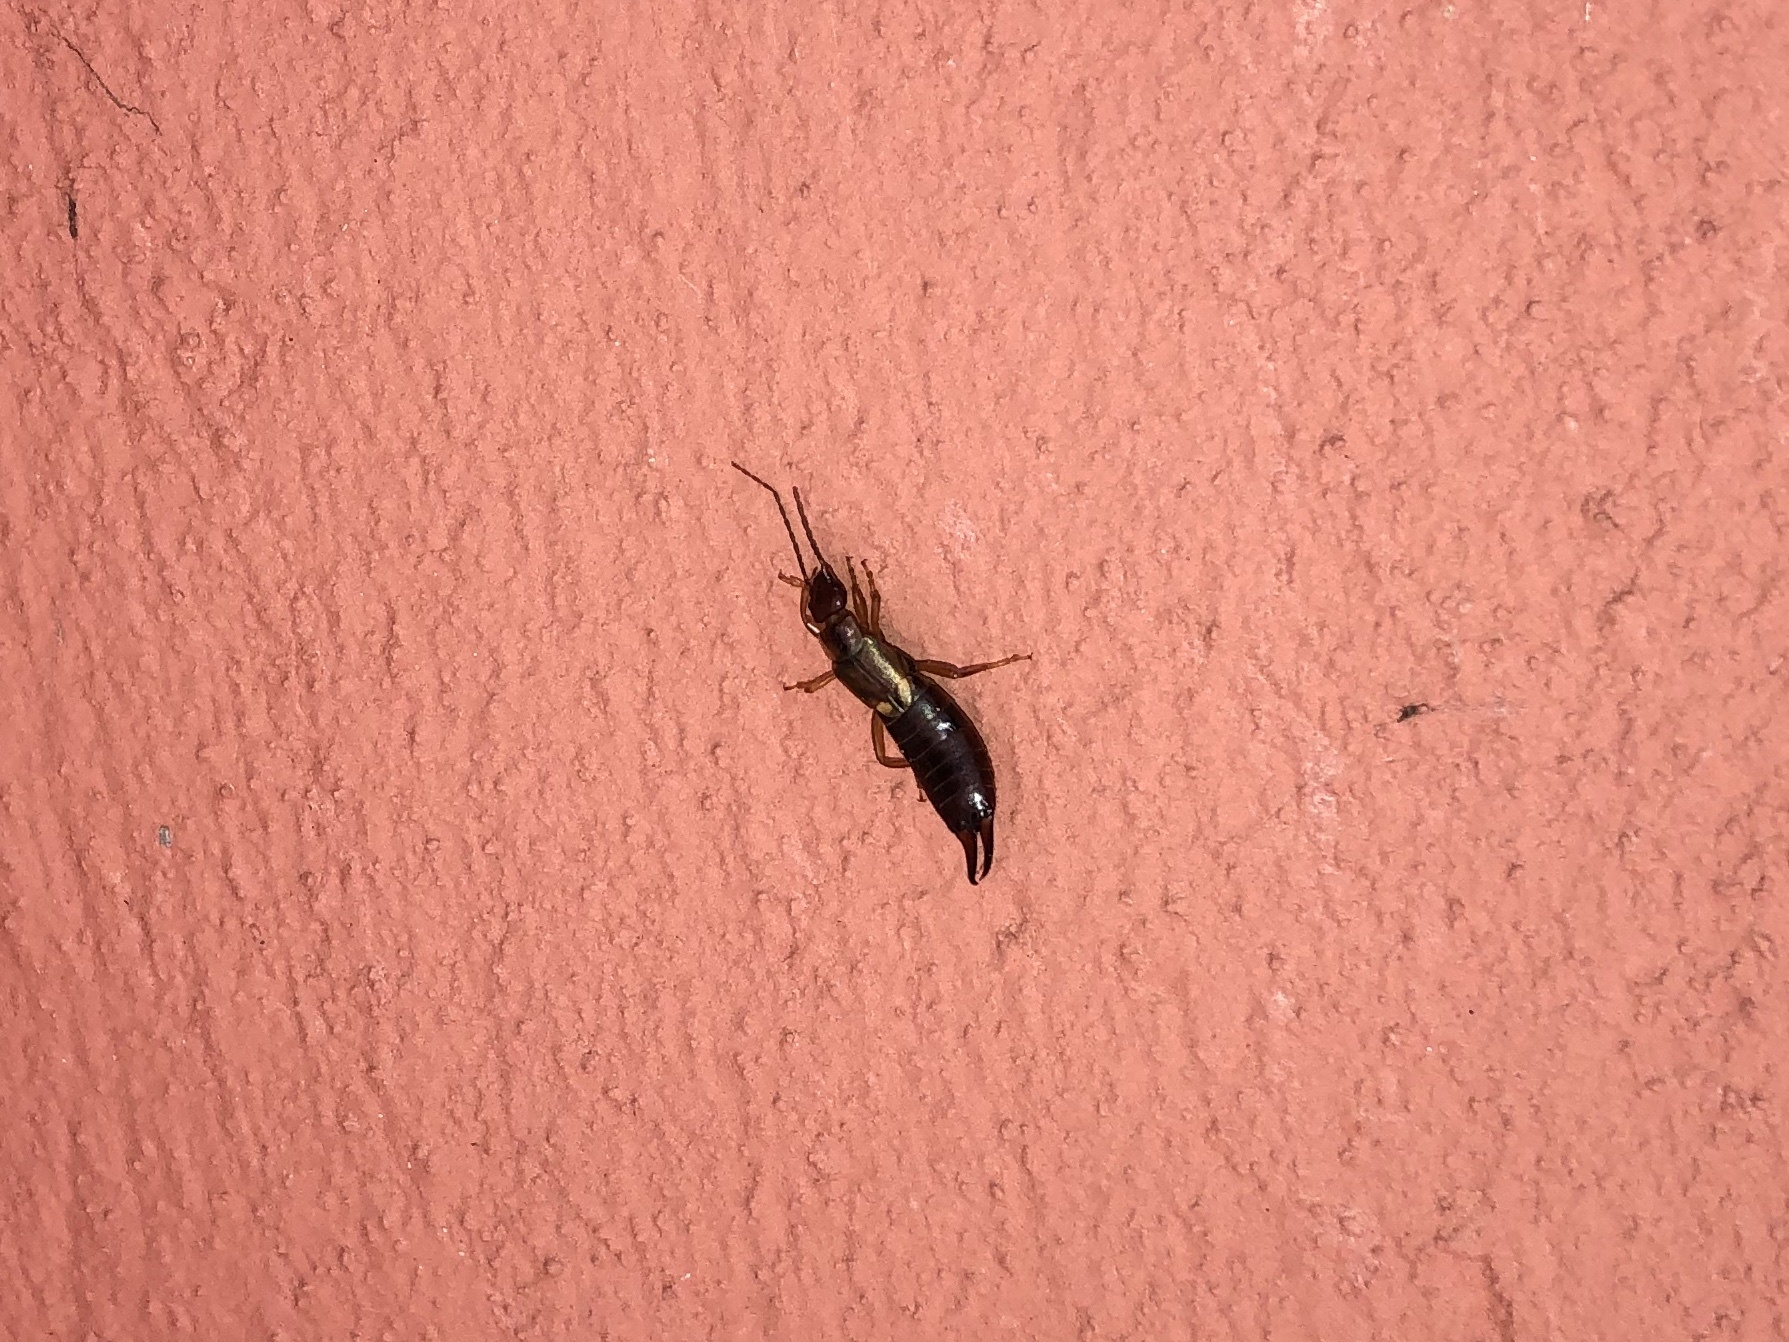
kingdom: Animalia
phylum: Arthropoda
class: Insecta
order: Dermaptera
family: Forficulidae
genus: Forficula
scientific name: Forficula
